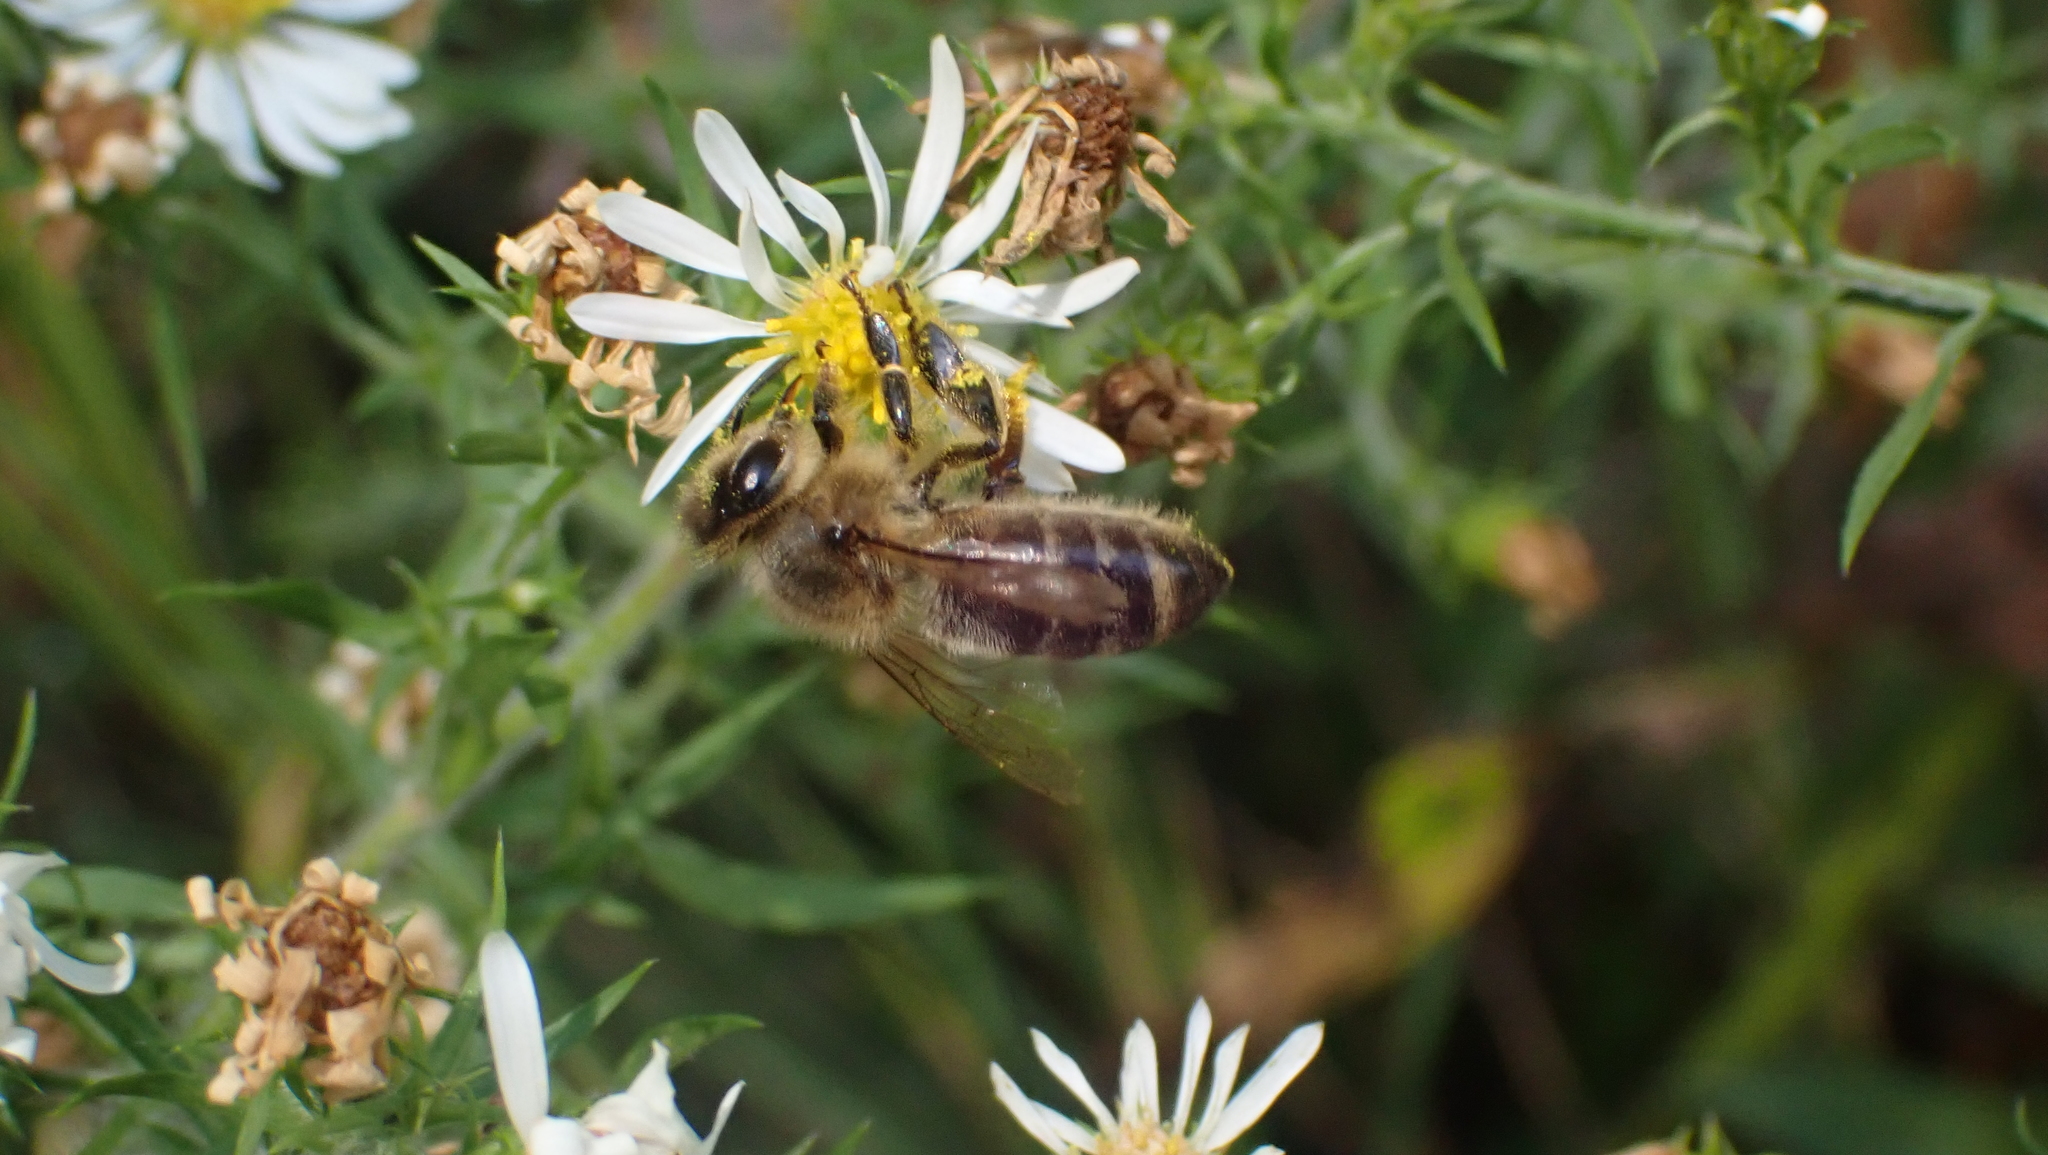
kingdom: Animalia
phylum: Arthropoda
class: Insecta
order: Hymenoptera
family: Apidae
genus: Apis
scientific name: Apis mellifera
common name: Honey bee
